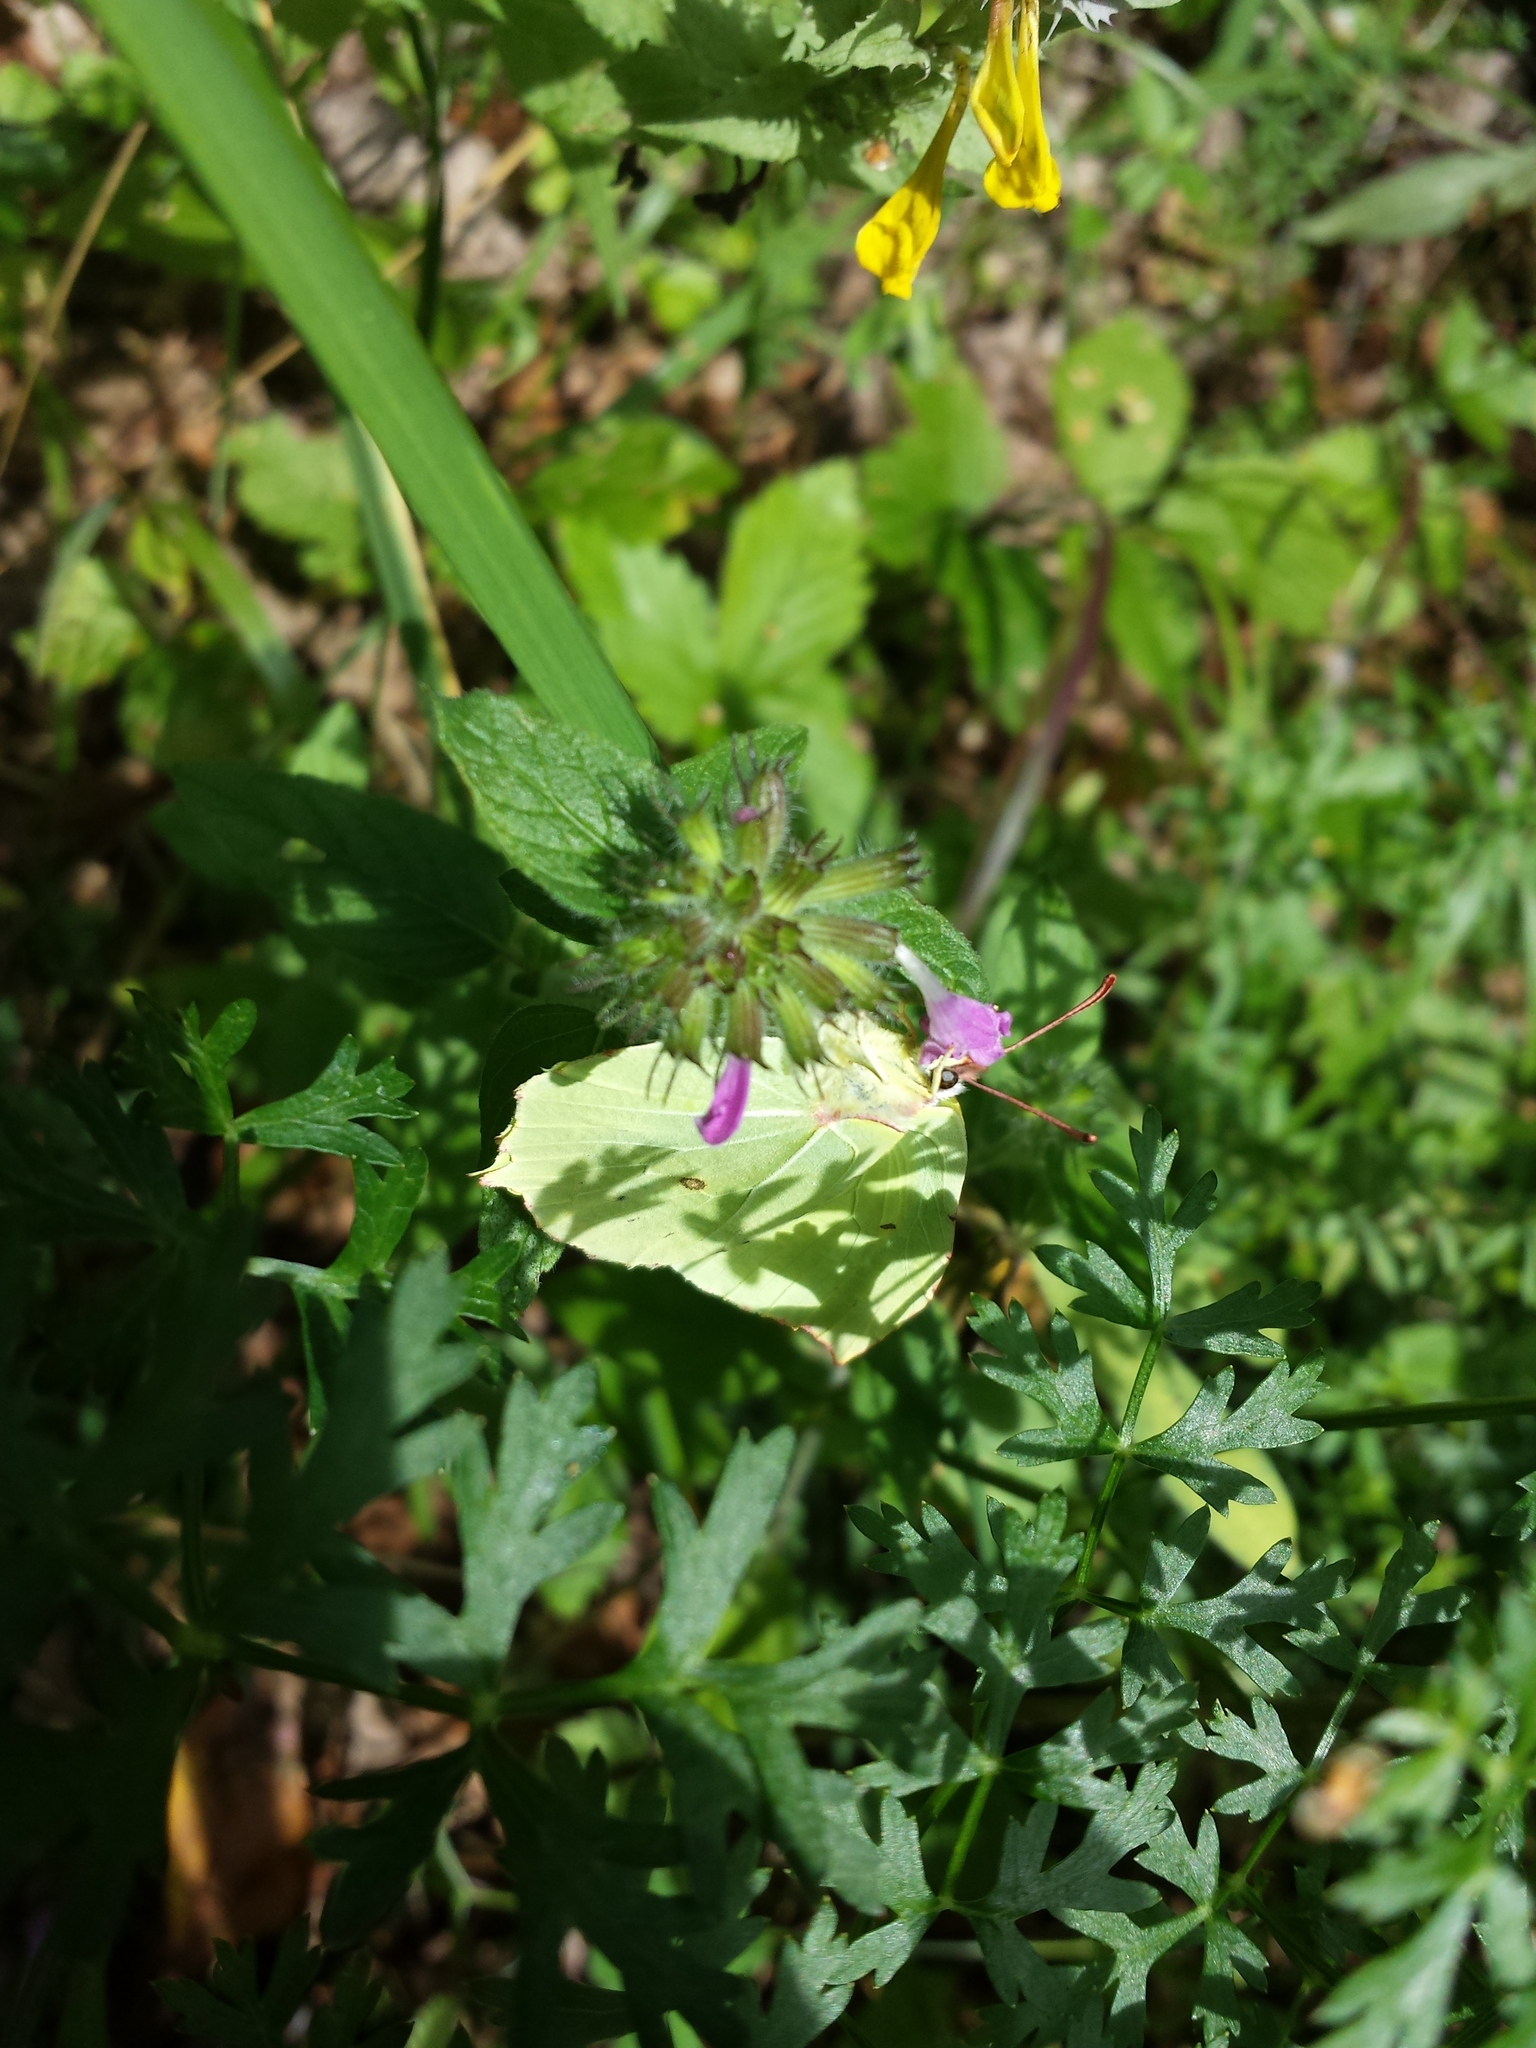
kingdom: Animalia
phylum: Arthropoda
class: Insecta
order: Lepidoptera
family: Pieridae
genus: Gonepteryx
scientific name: Gonepteryx rhamni
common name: Brimstone
